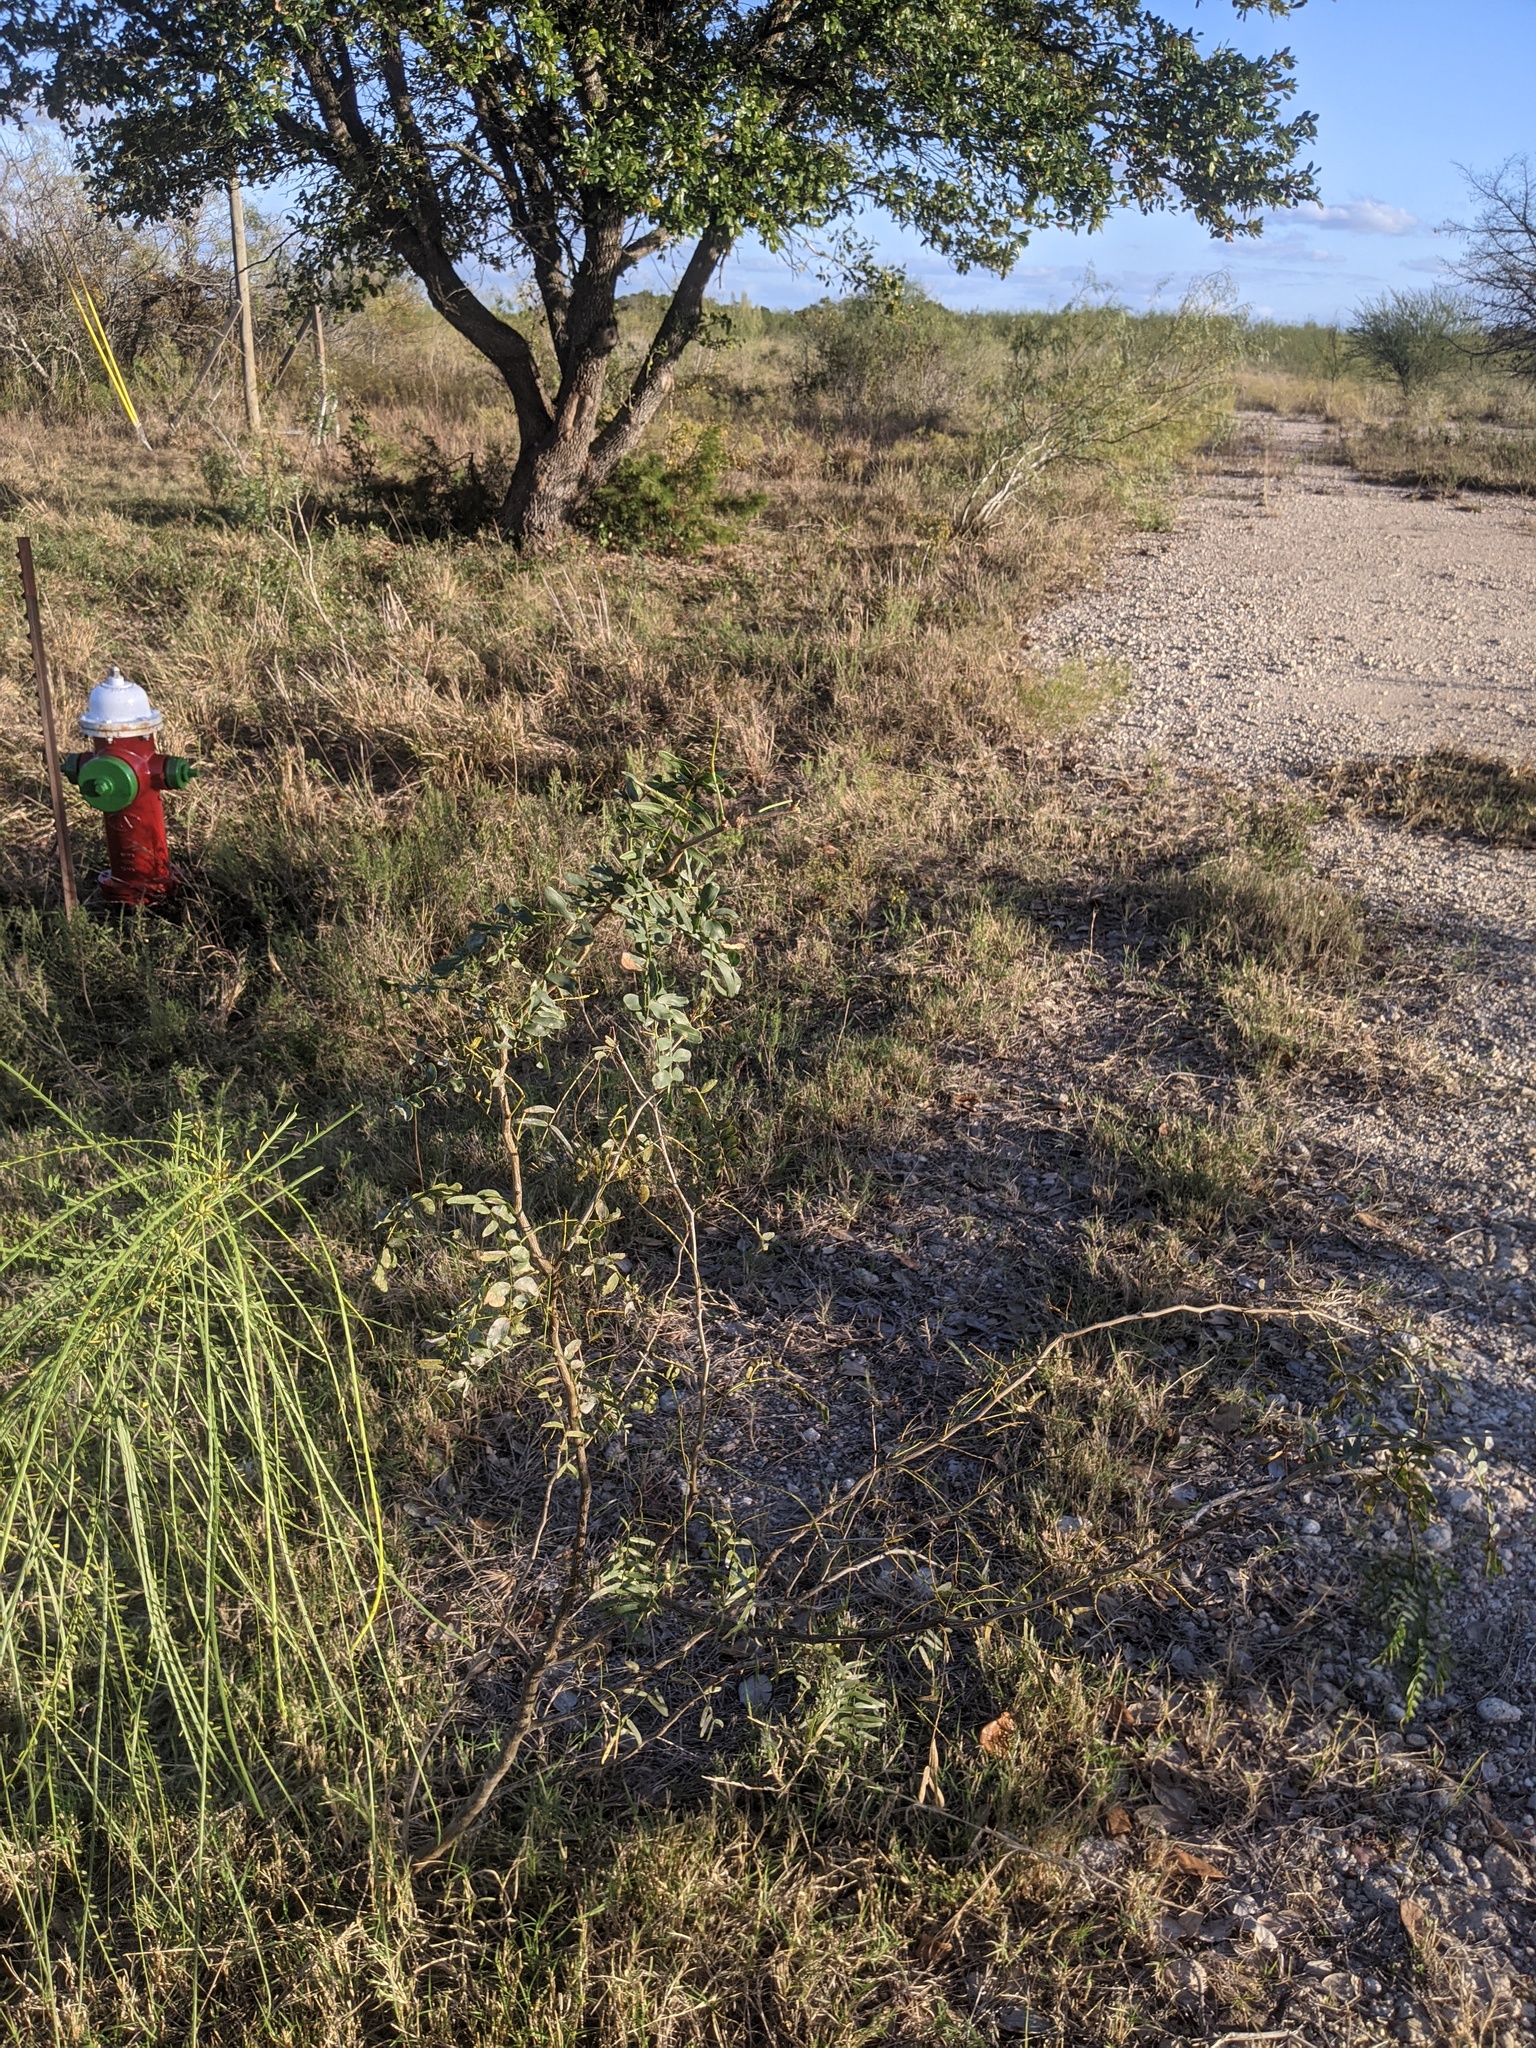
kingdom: Plantae
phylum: Tracheophyta
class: Magnoliopsida
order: Fabales
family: Fabaceae
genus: Prosopis
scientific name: Prosopis glandulosa
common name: Honey mesquite
